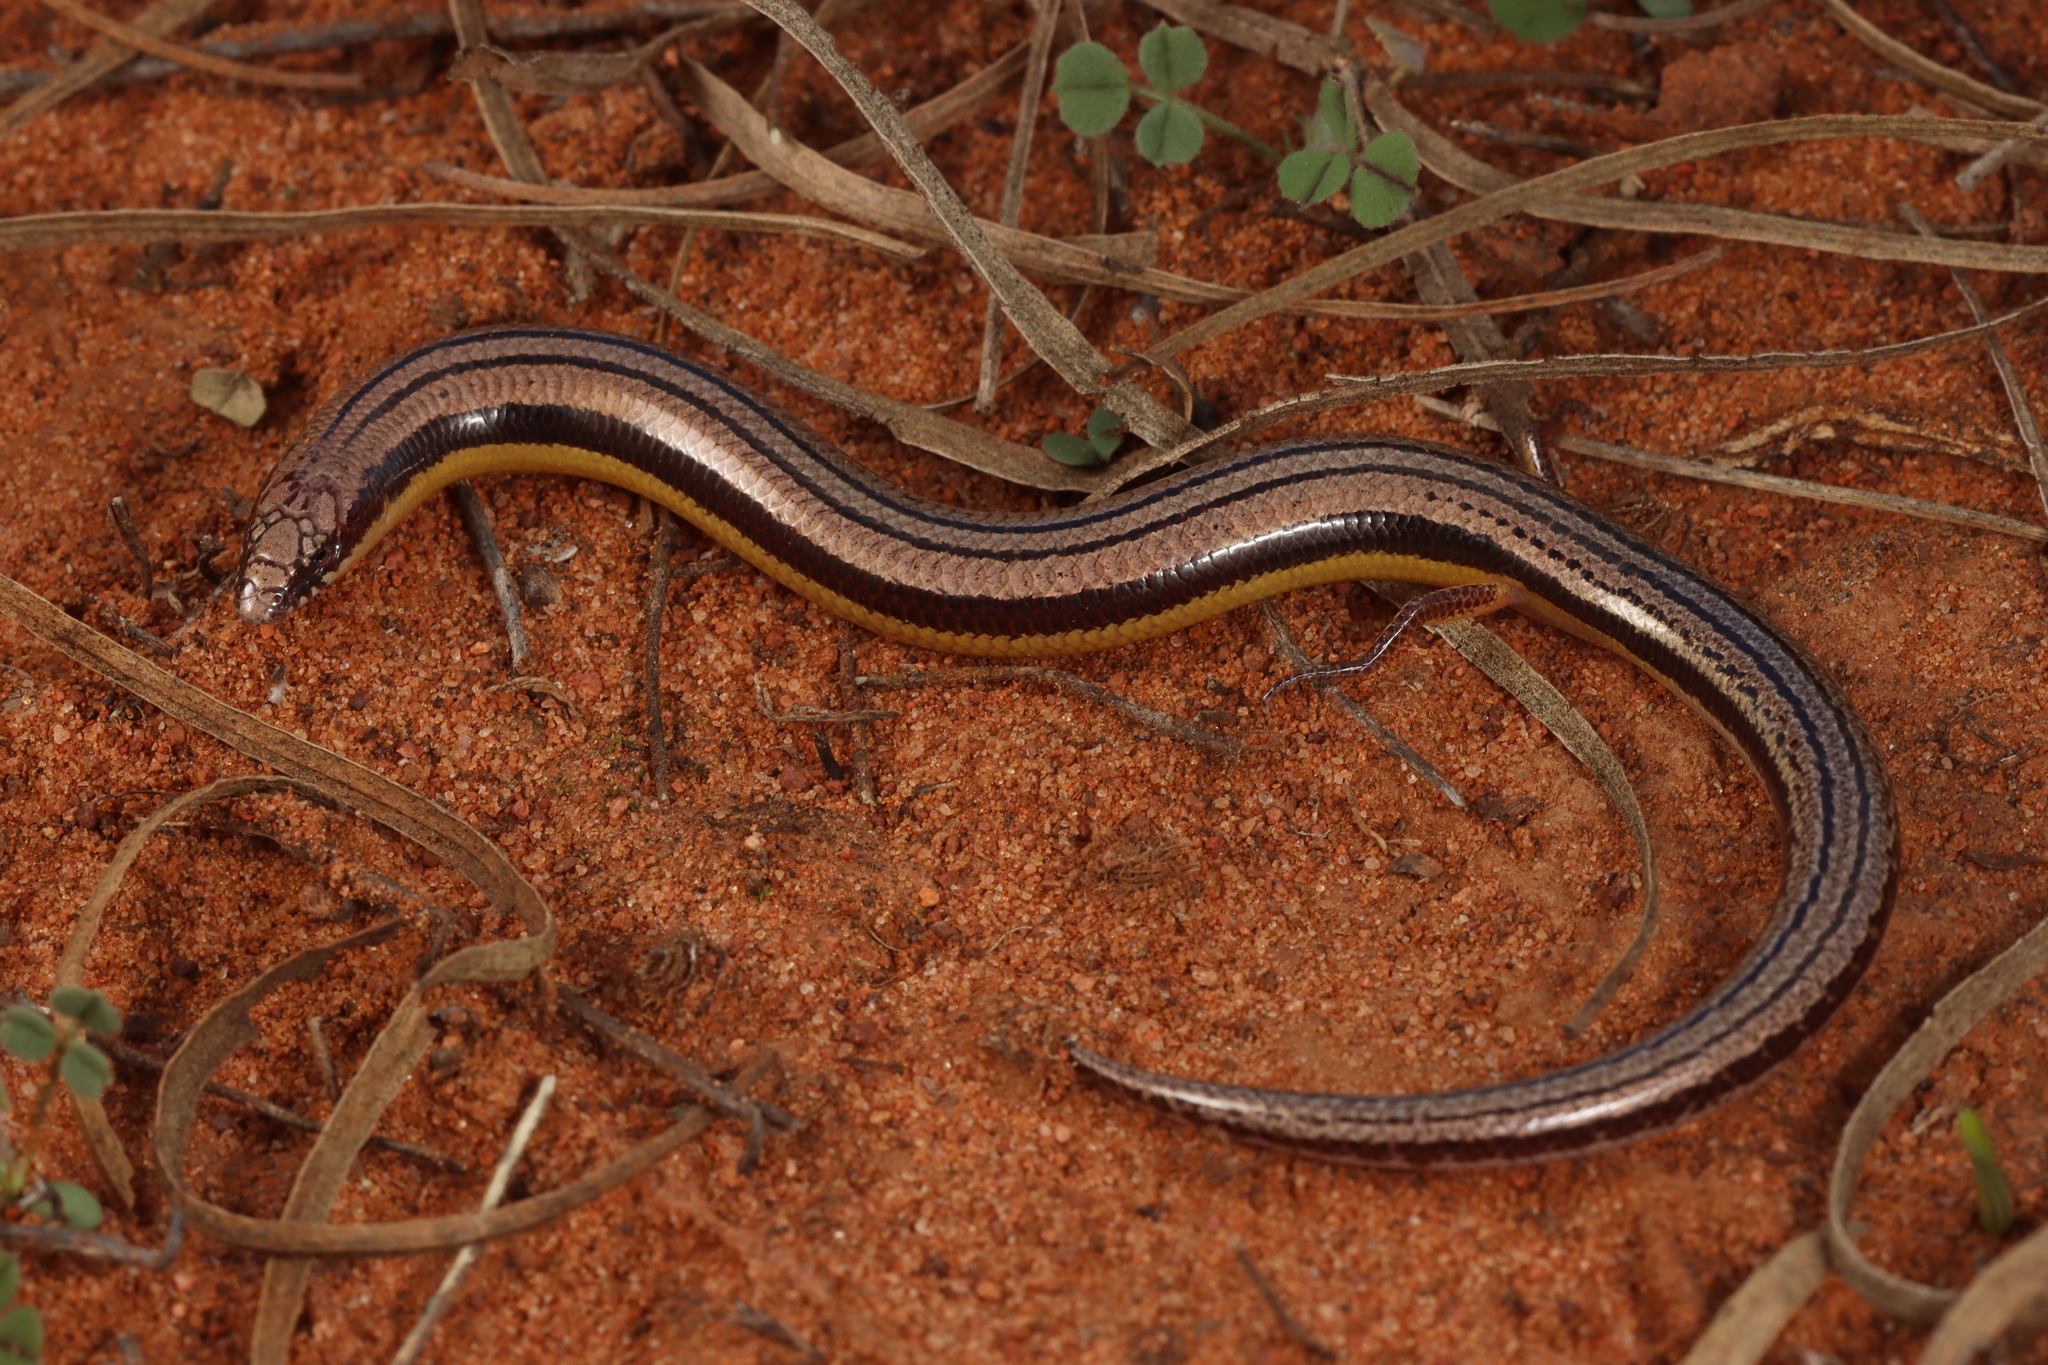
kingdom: Animalia
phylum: Chordata
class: Squamata
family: Scincidae
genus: Lerista
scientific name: Lerista edwardsae
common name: Myall slider
